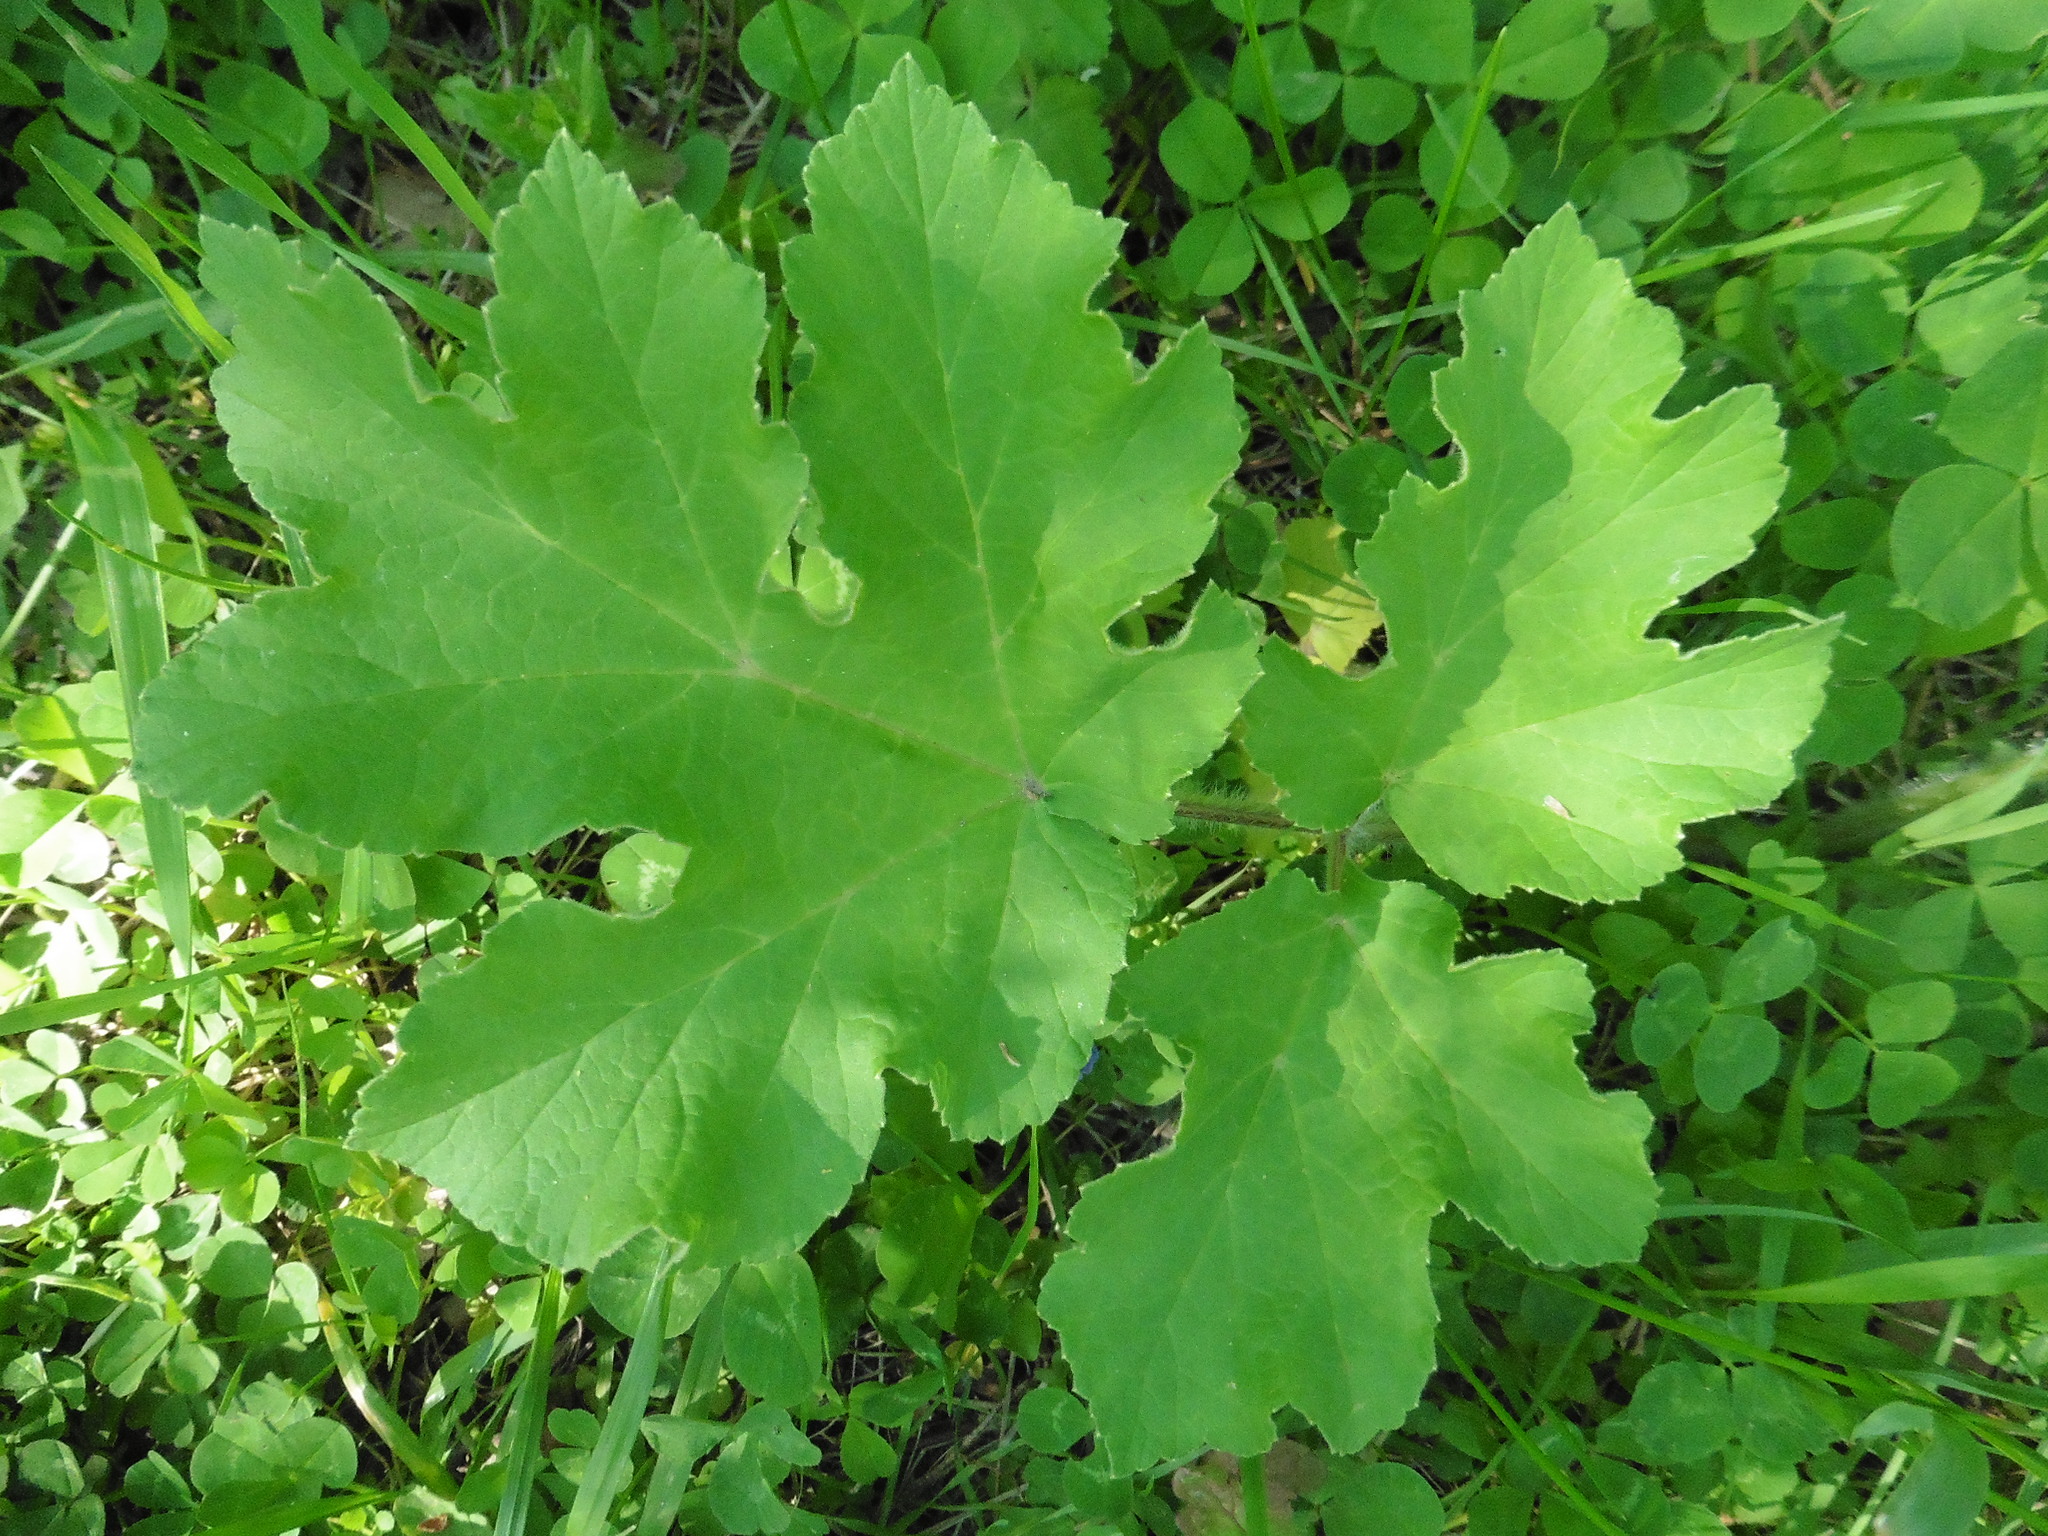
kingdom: Plantae
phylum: Tracheophyta
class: Magnoliopsida
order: Apiales
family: Apiaceae
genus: Heracleum
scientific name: Heracleum sphondylium
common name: Hogweed
